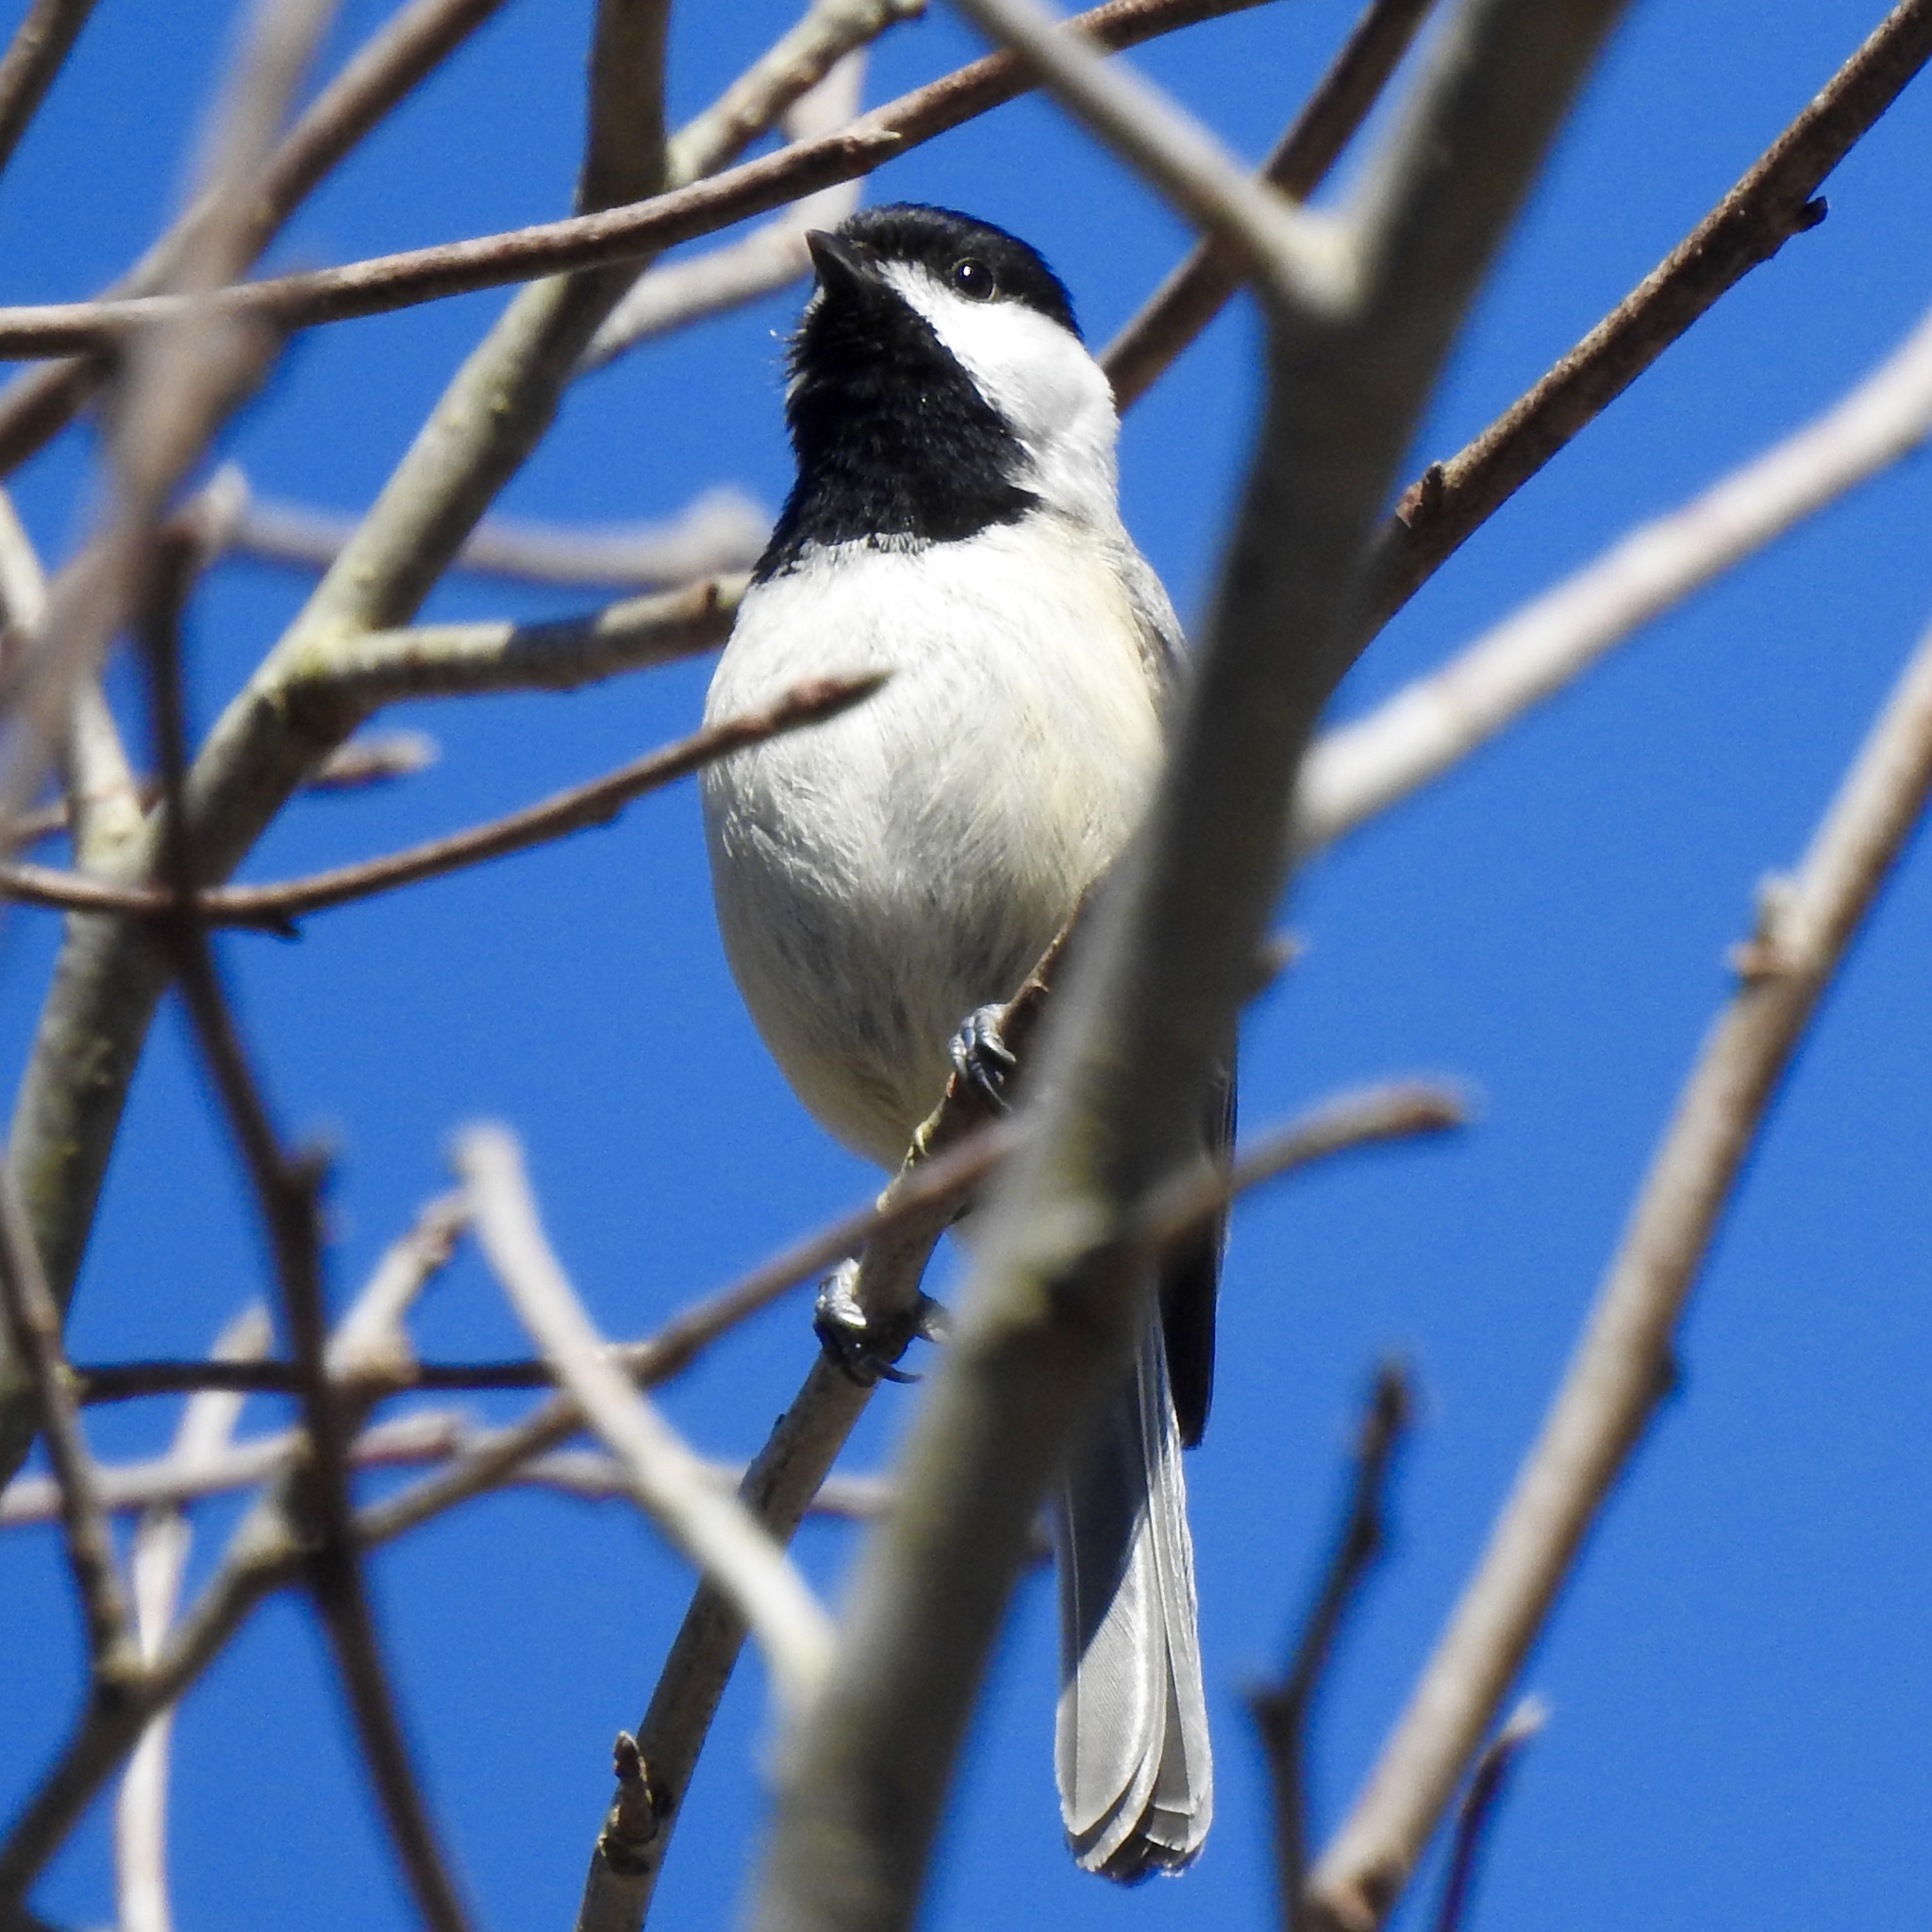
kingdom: Animalia
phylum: Chordata
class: Aves
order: Passeriformes
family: Paridae
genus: Poecile
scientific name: Poecile carolinensis
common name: Carolina chickadee
